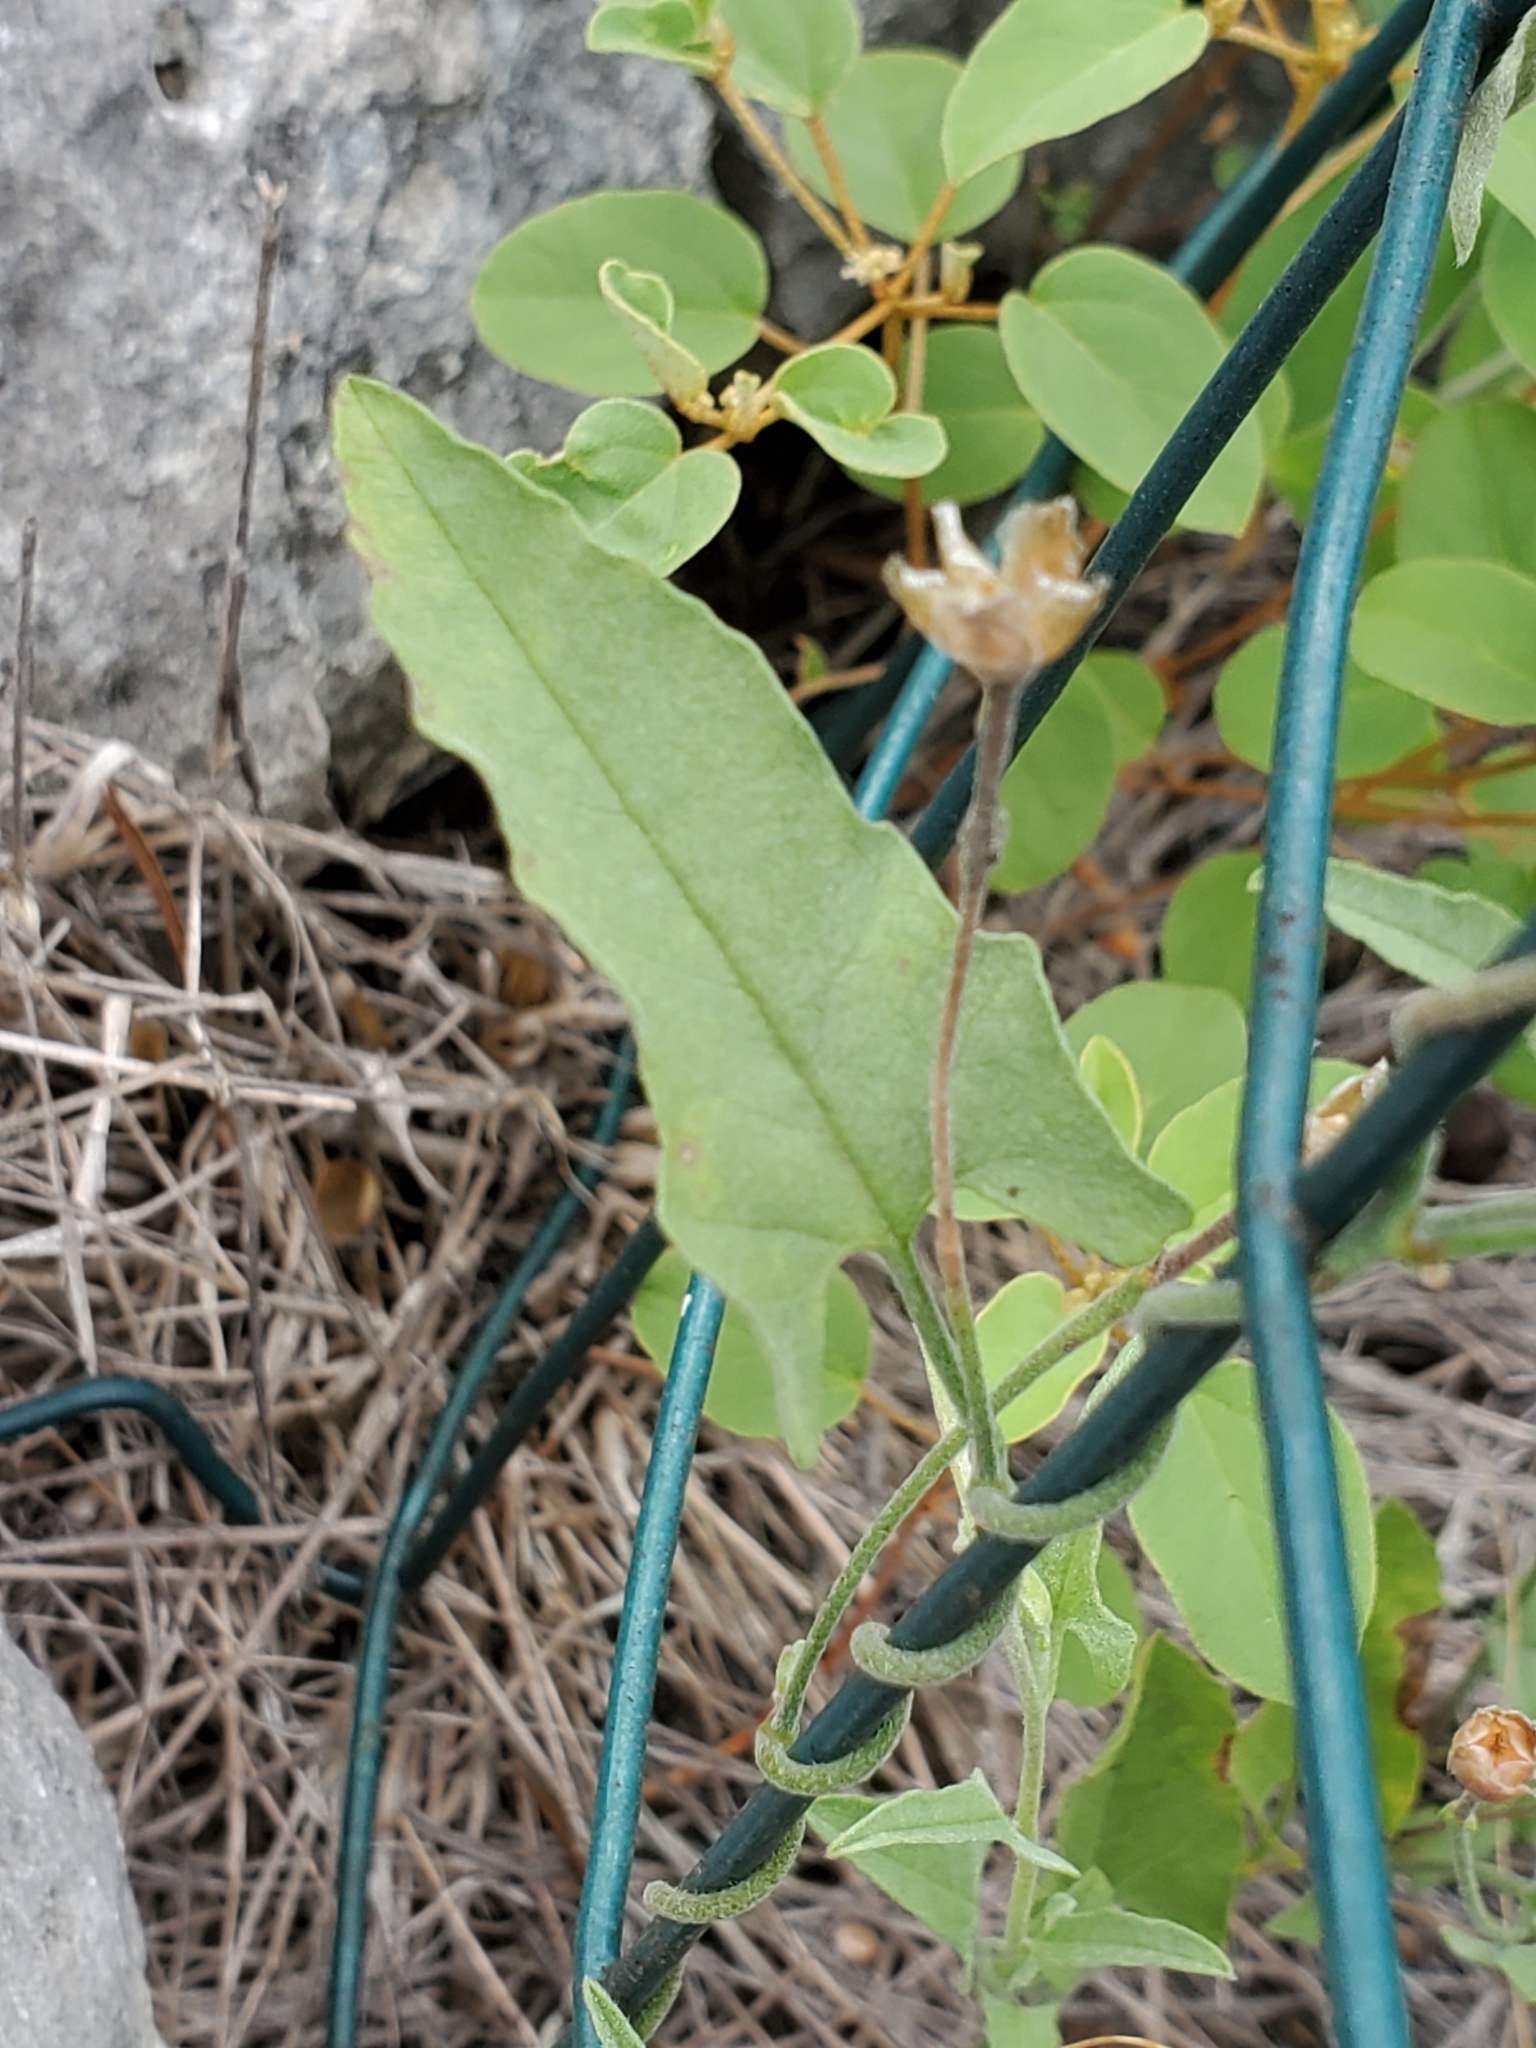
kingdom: Plantae
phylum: Tracheophyta
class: Magnoliopsida
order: Solanales
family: Convolvulaceae
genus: Convolvulus
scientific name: Convolvulus equitans
